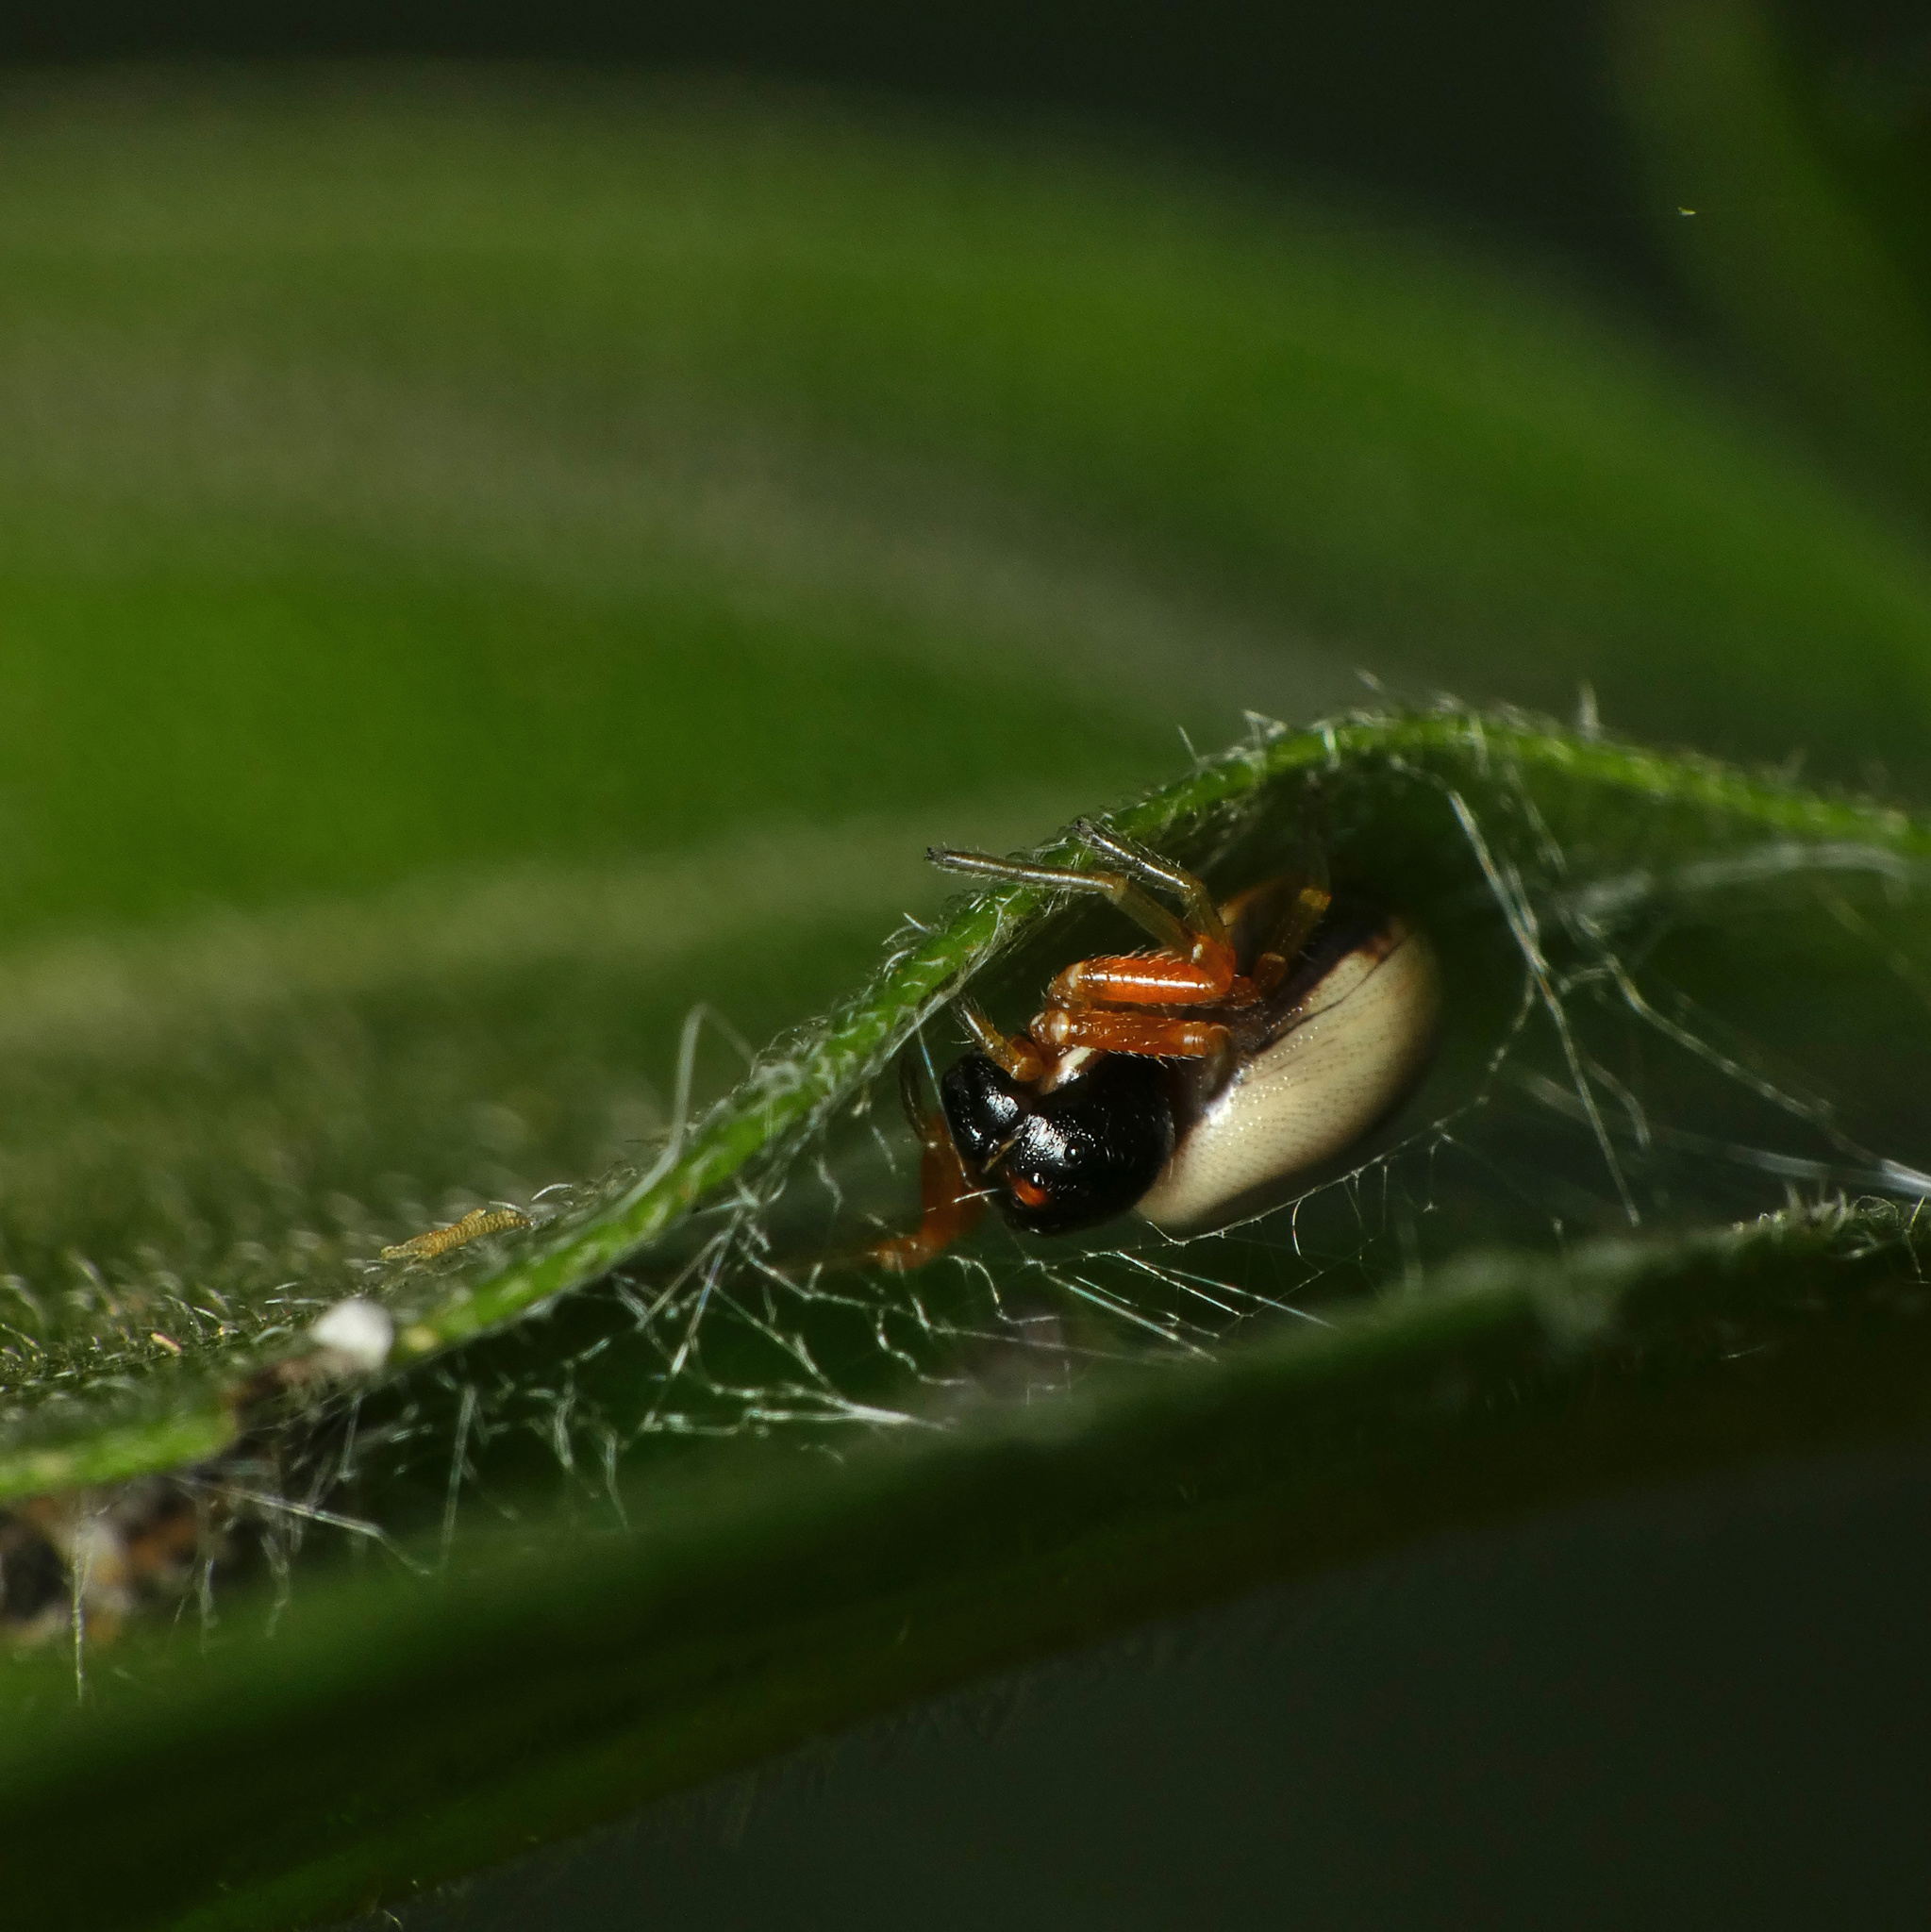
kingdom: Animalia
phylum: Arthropoda
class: Arachnida
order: Araneae
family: Thomisidae
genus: Mystaria
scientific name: Mystaria savannensis
